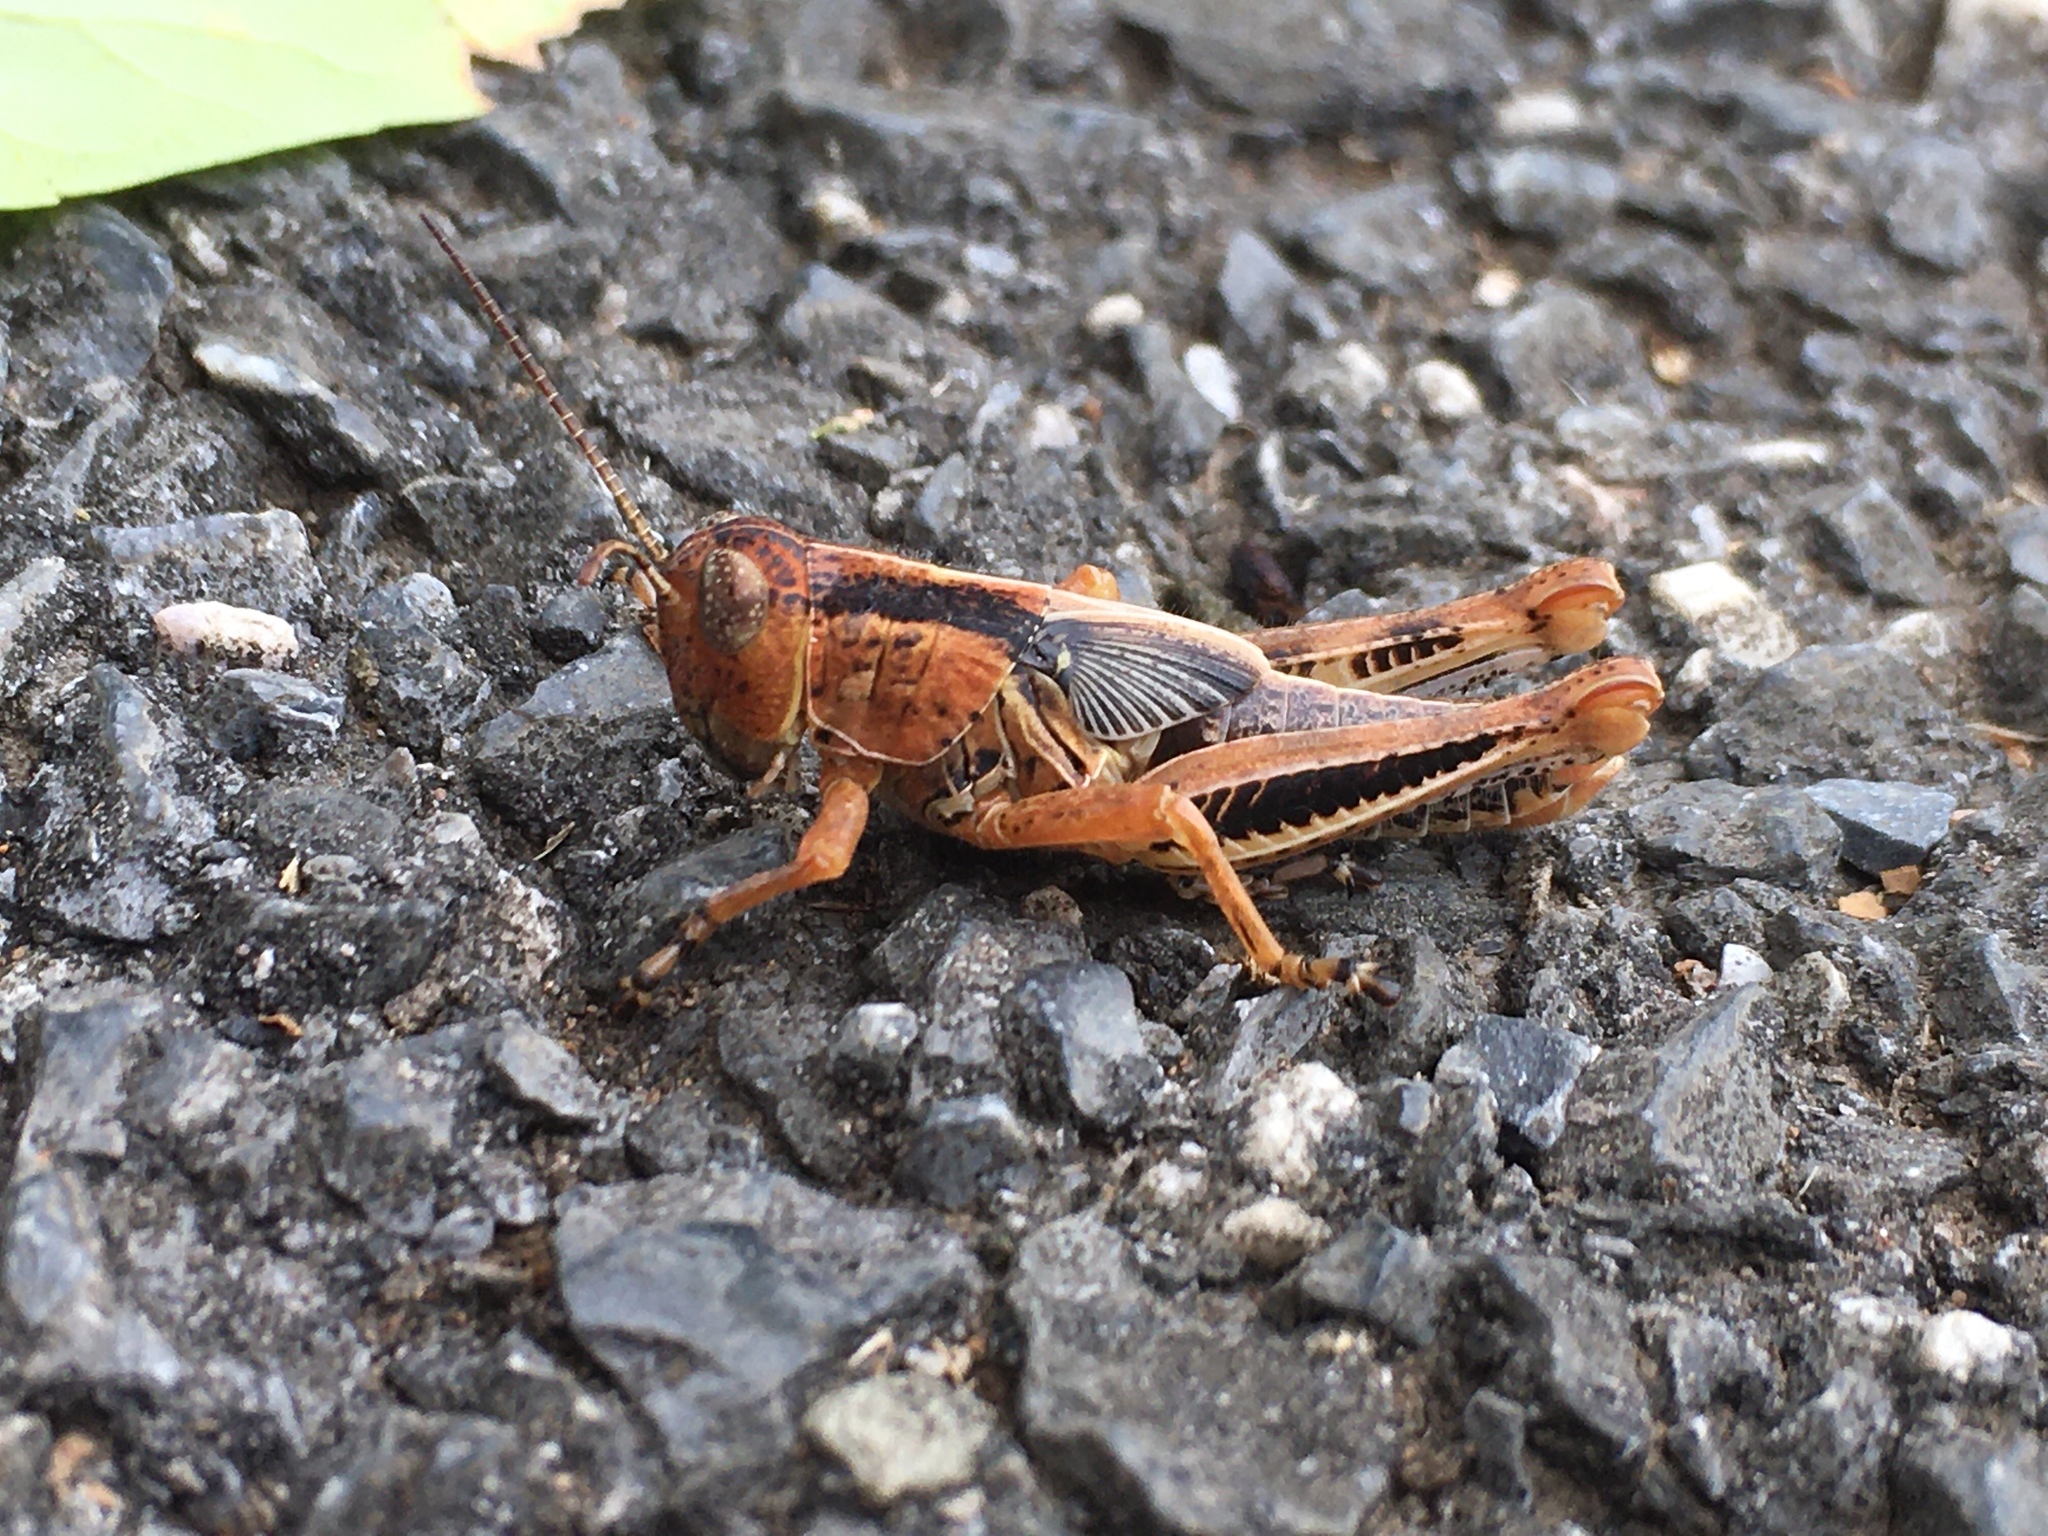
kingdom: Animalia
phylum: Arthropoda
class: Insecta
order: Orthoptera
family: Acrididae
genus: Melanoplus
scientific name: Melanoplus differentialis
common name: Differential grasshopper
